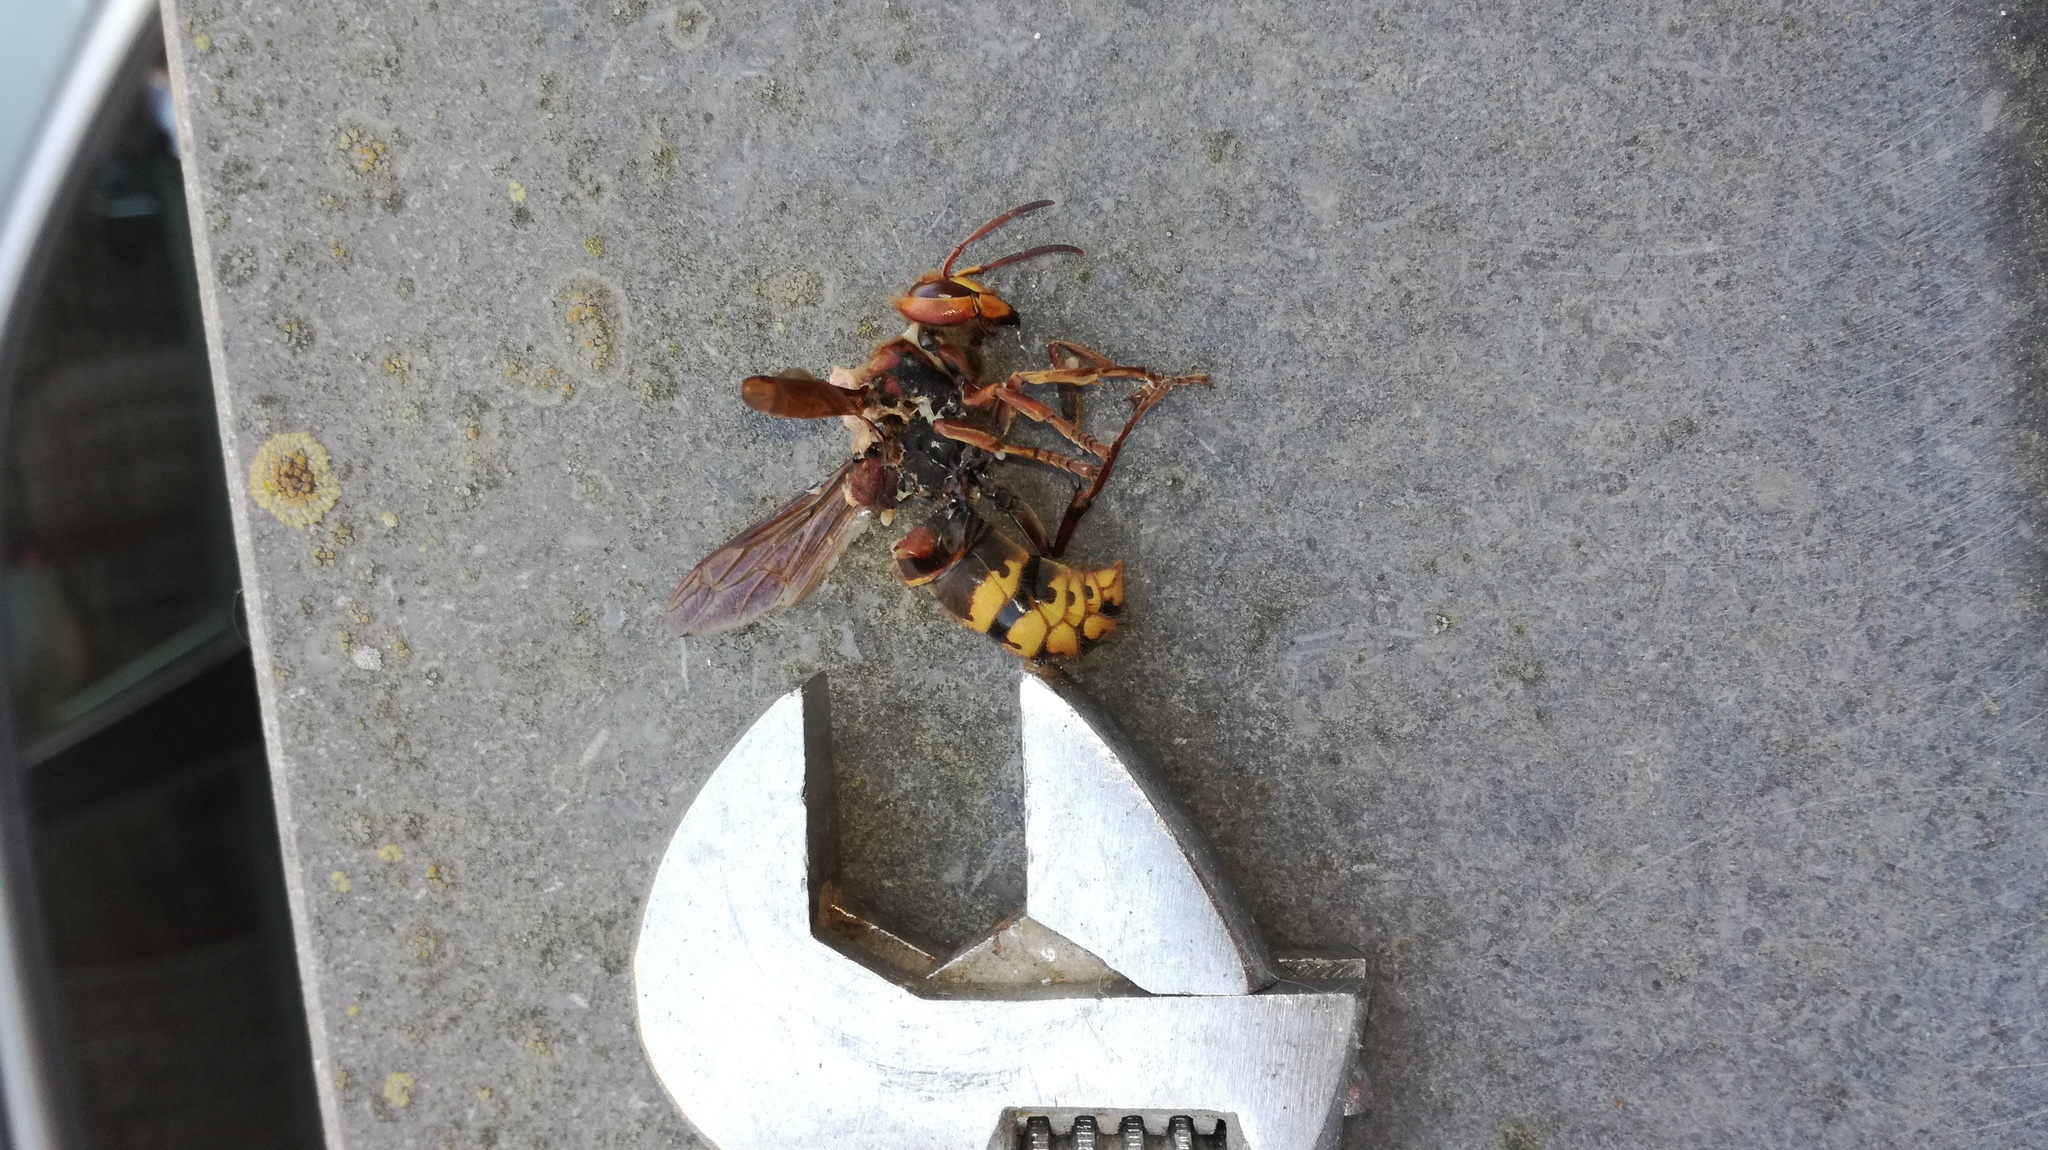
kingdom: Animalia
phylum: Arthropoda
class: Insecta
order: Hymenoptera
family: Vespidae
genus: Vespa
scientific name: Vespa crabro
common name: Hornet
